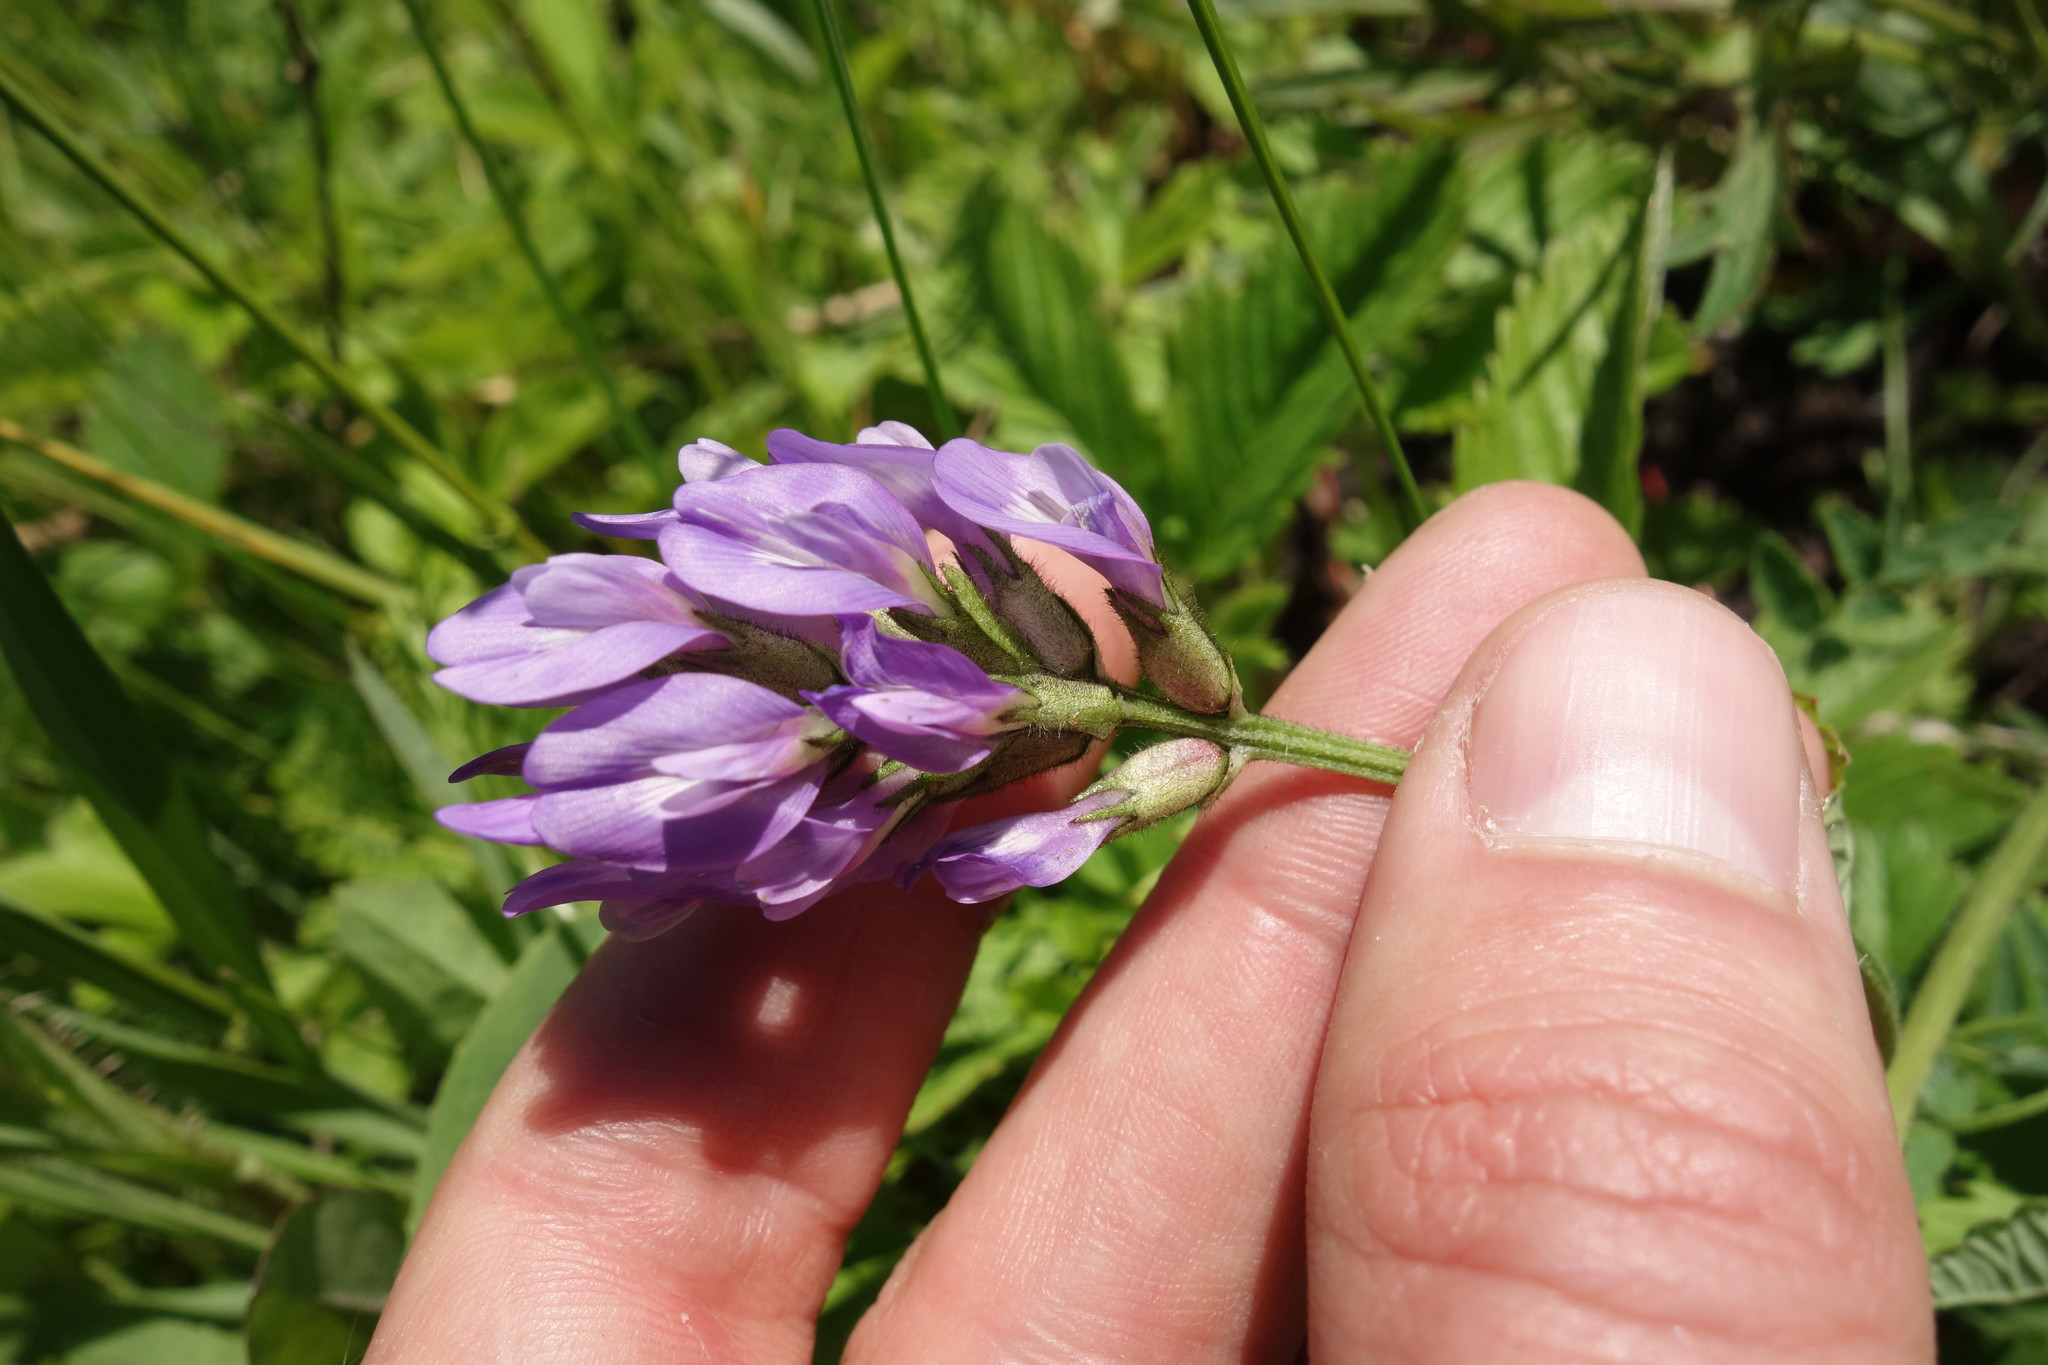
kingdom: Plantae
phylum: Tracheophyta
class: Magnoliopsida
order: Fabales
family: Fabaceae
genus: Astragalus
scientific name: Astragalus danicus
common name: Purple milk-vetch
